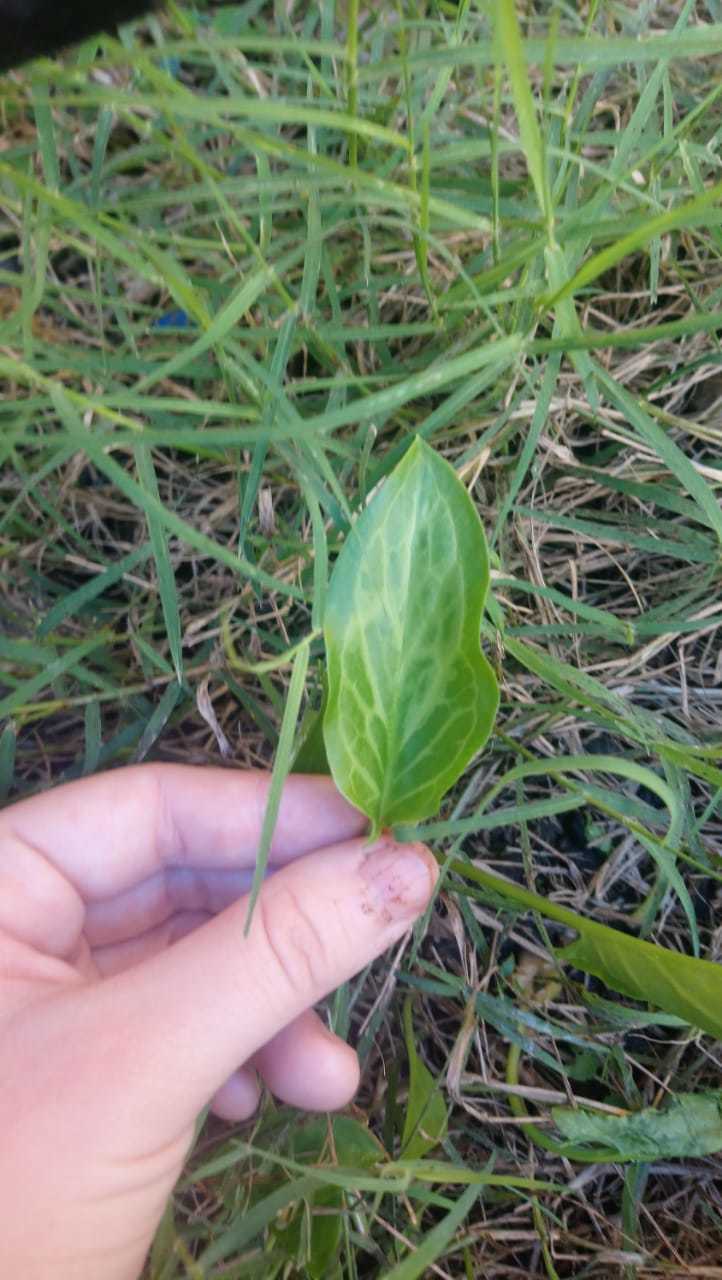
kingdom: Plantae
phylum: Tracheophyta
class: Liliopsida
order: Alismatales
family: Araceae
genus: Arum
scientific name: Arum italicum
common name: Italian lords-and-ladies
